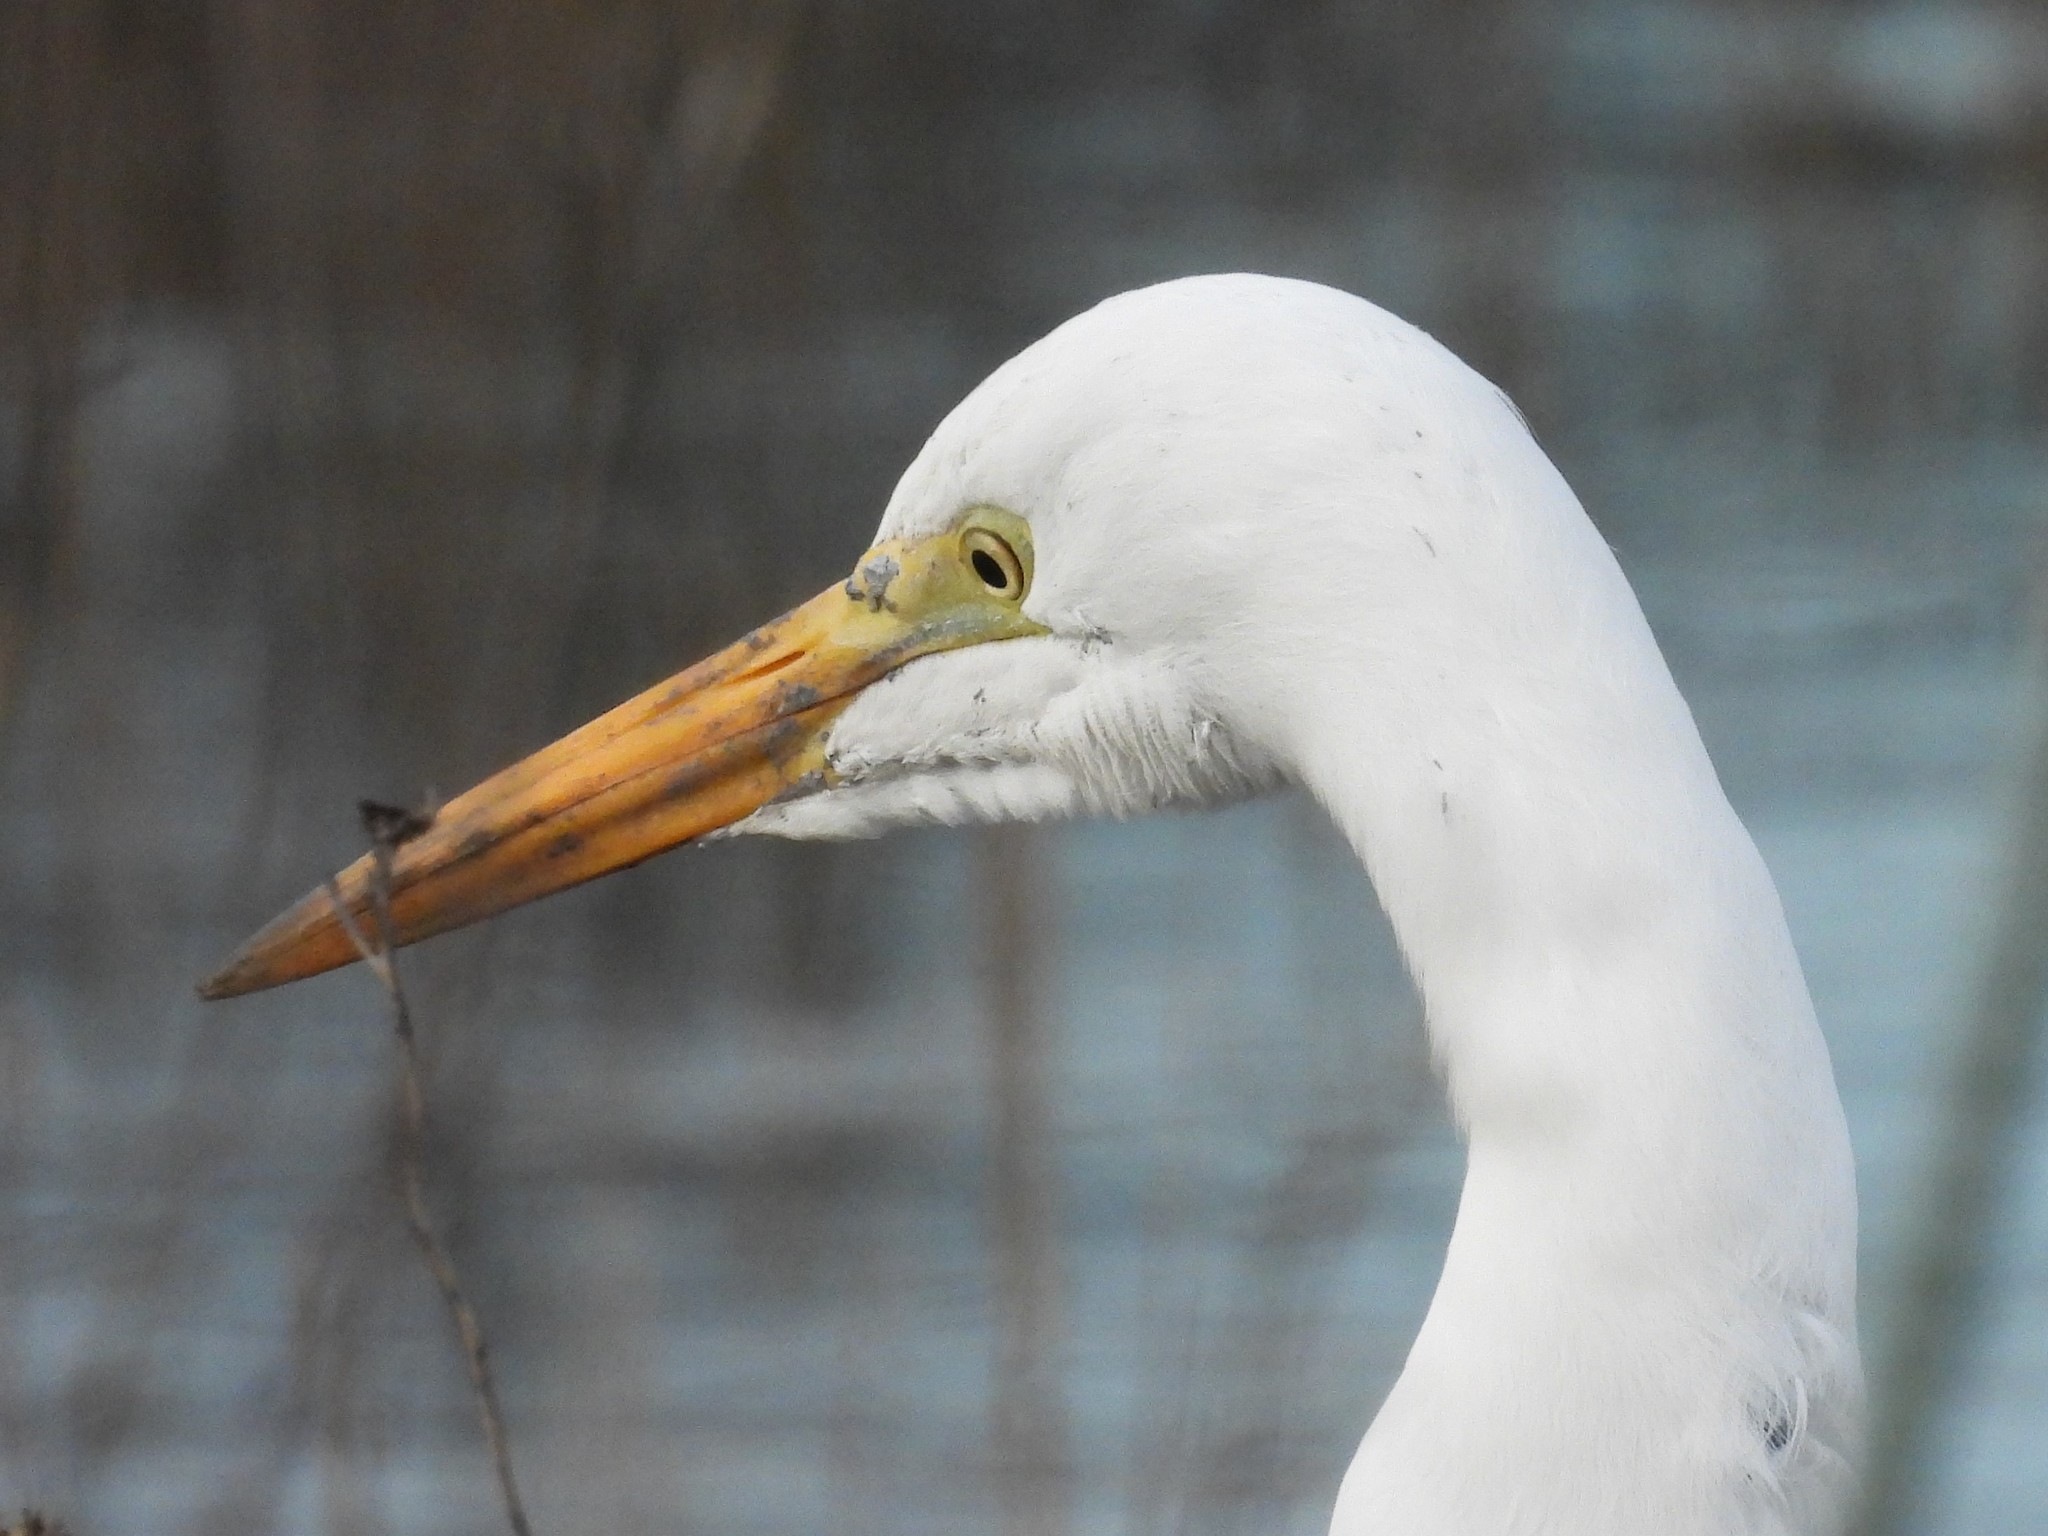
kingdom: Animalia
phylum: Chordata
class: Aves
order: Pelecaniformes
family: Ardeidae
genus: Ardea
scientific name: Ardea alba
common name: Great egret
